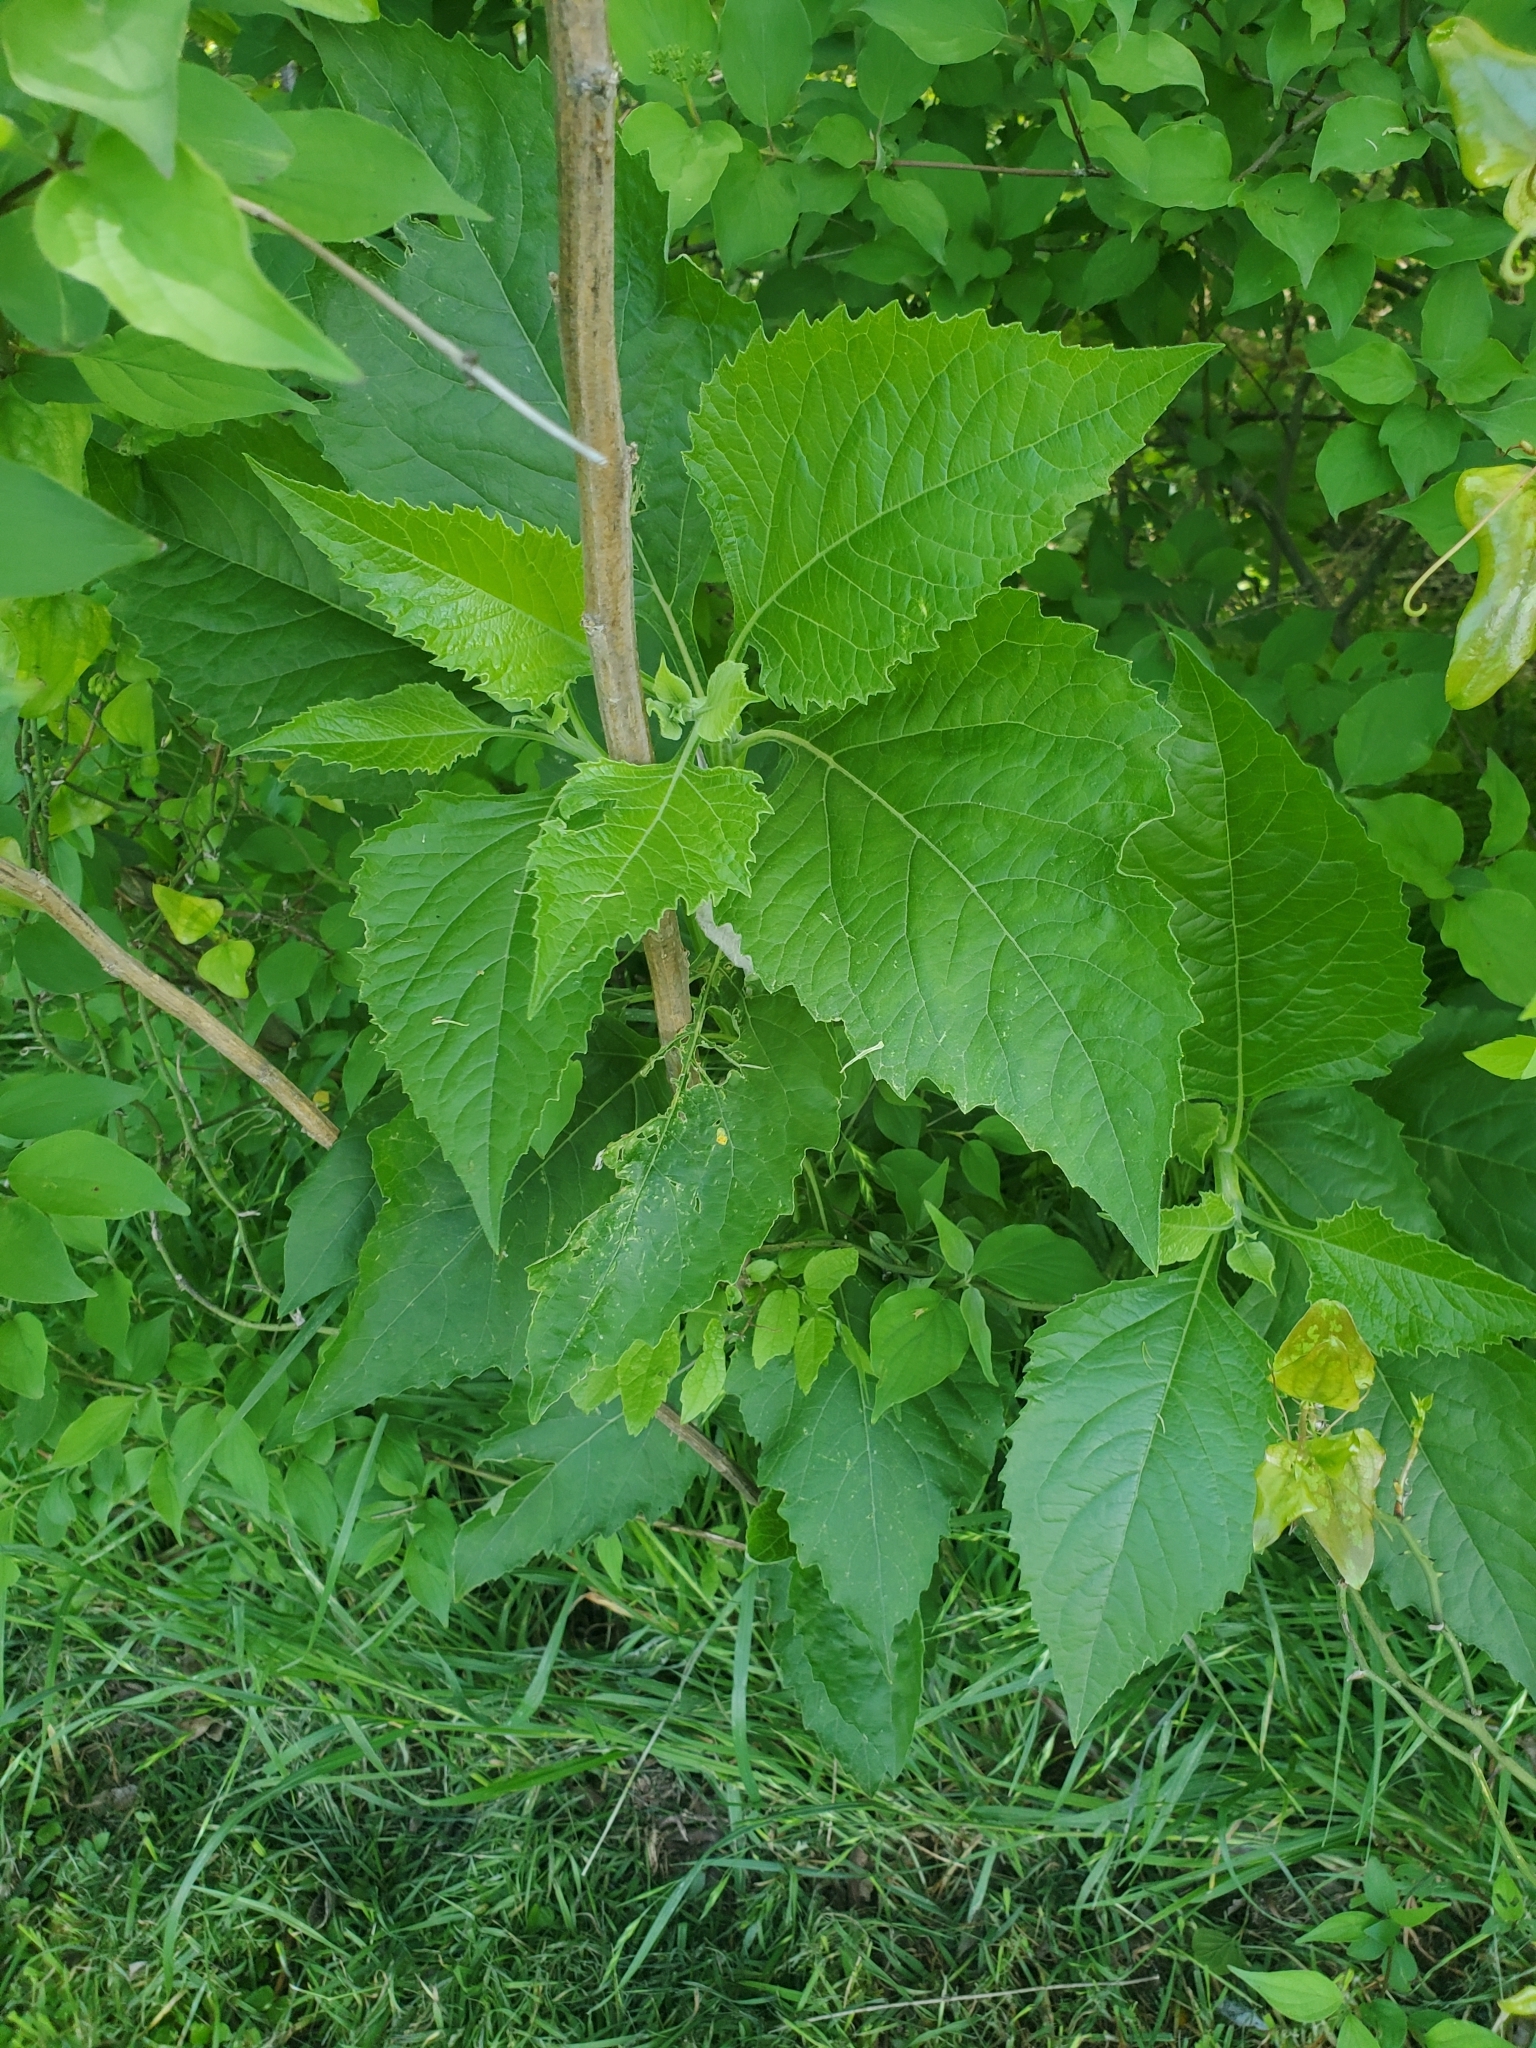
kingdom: Plantae
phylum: Tracheophyta
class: Magnoliopsida
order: Asterales
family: Asteraceae
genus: Verbesina
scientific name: Verbesina virginica
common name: Frostweed
